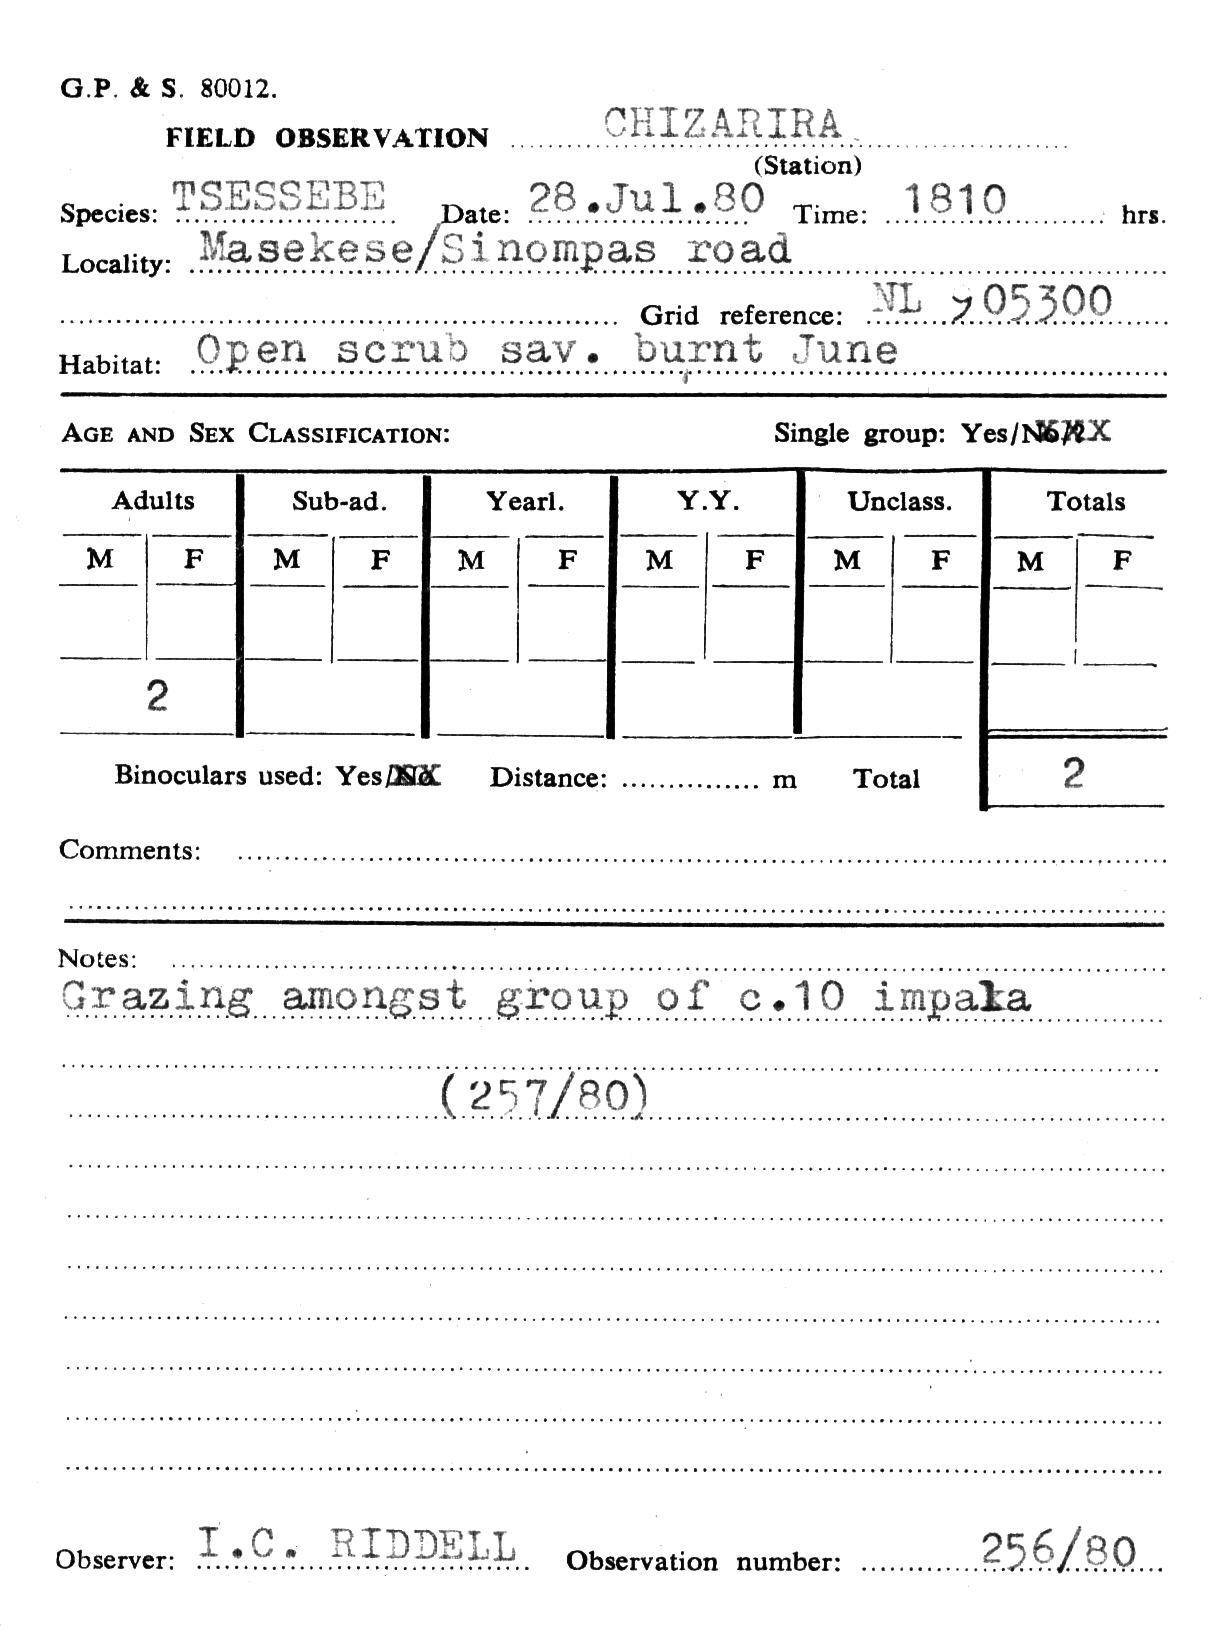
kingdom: Animalia
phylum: Chordata
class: Mammalia
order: Artiodactyla
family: Bovidae
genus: Damaliscus
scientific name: Damaliscus lunatus
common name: Common tsessebe
